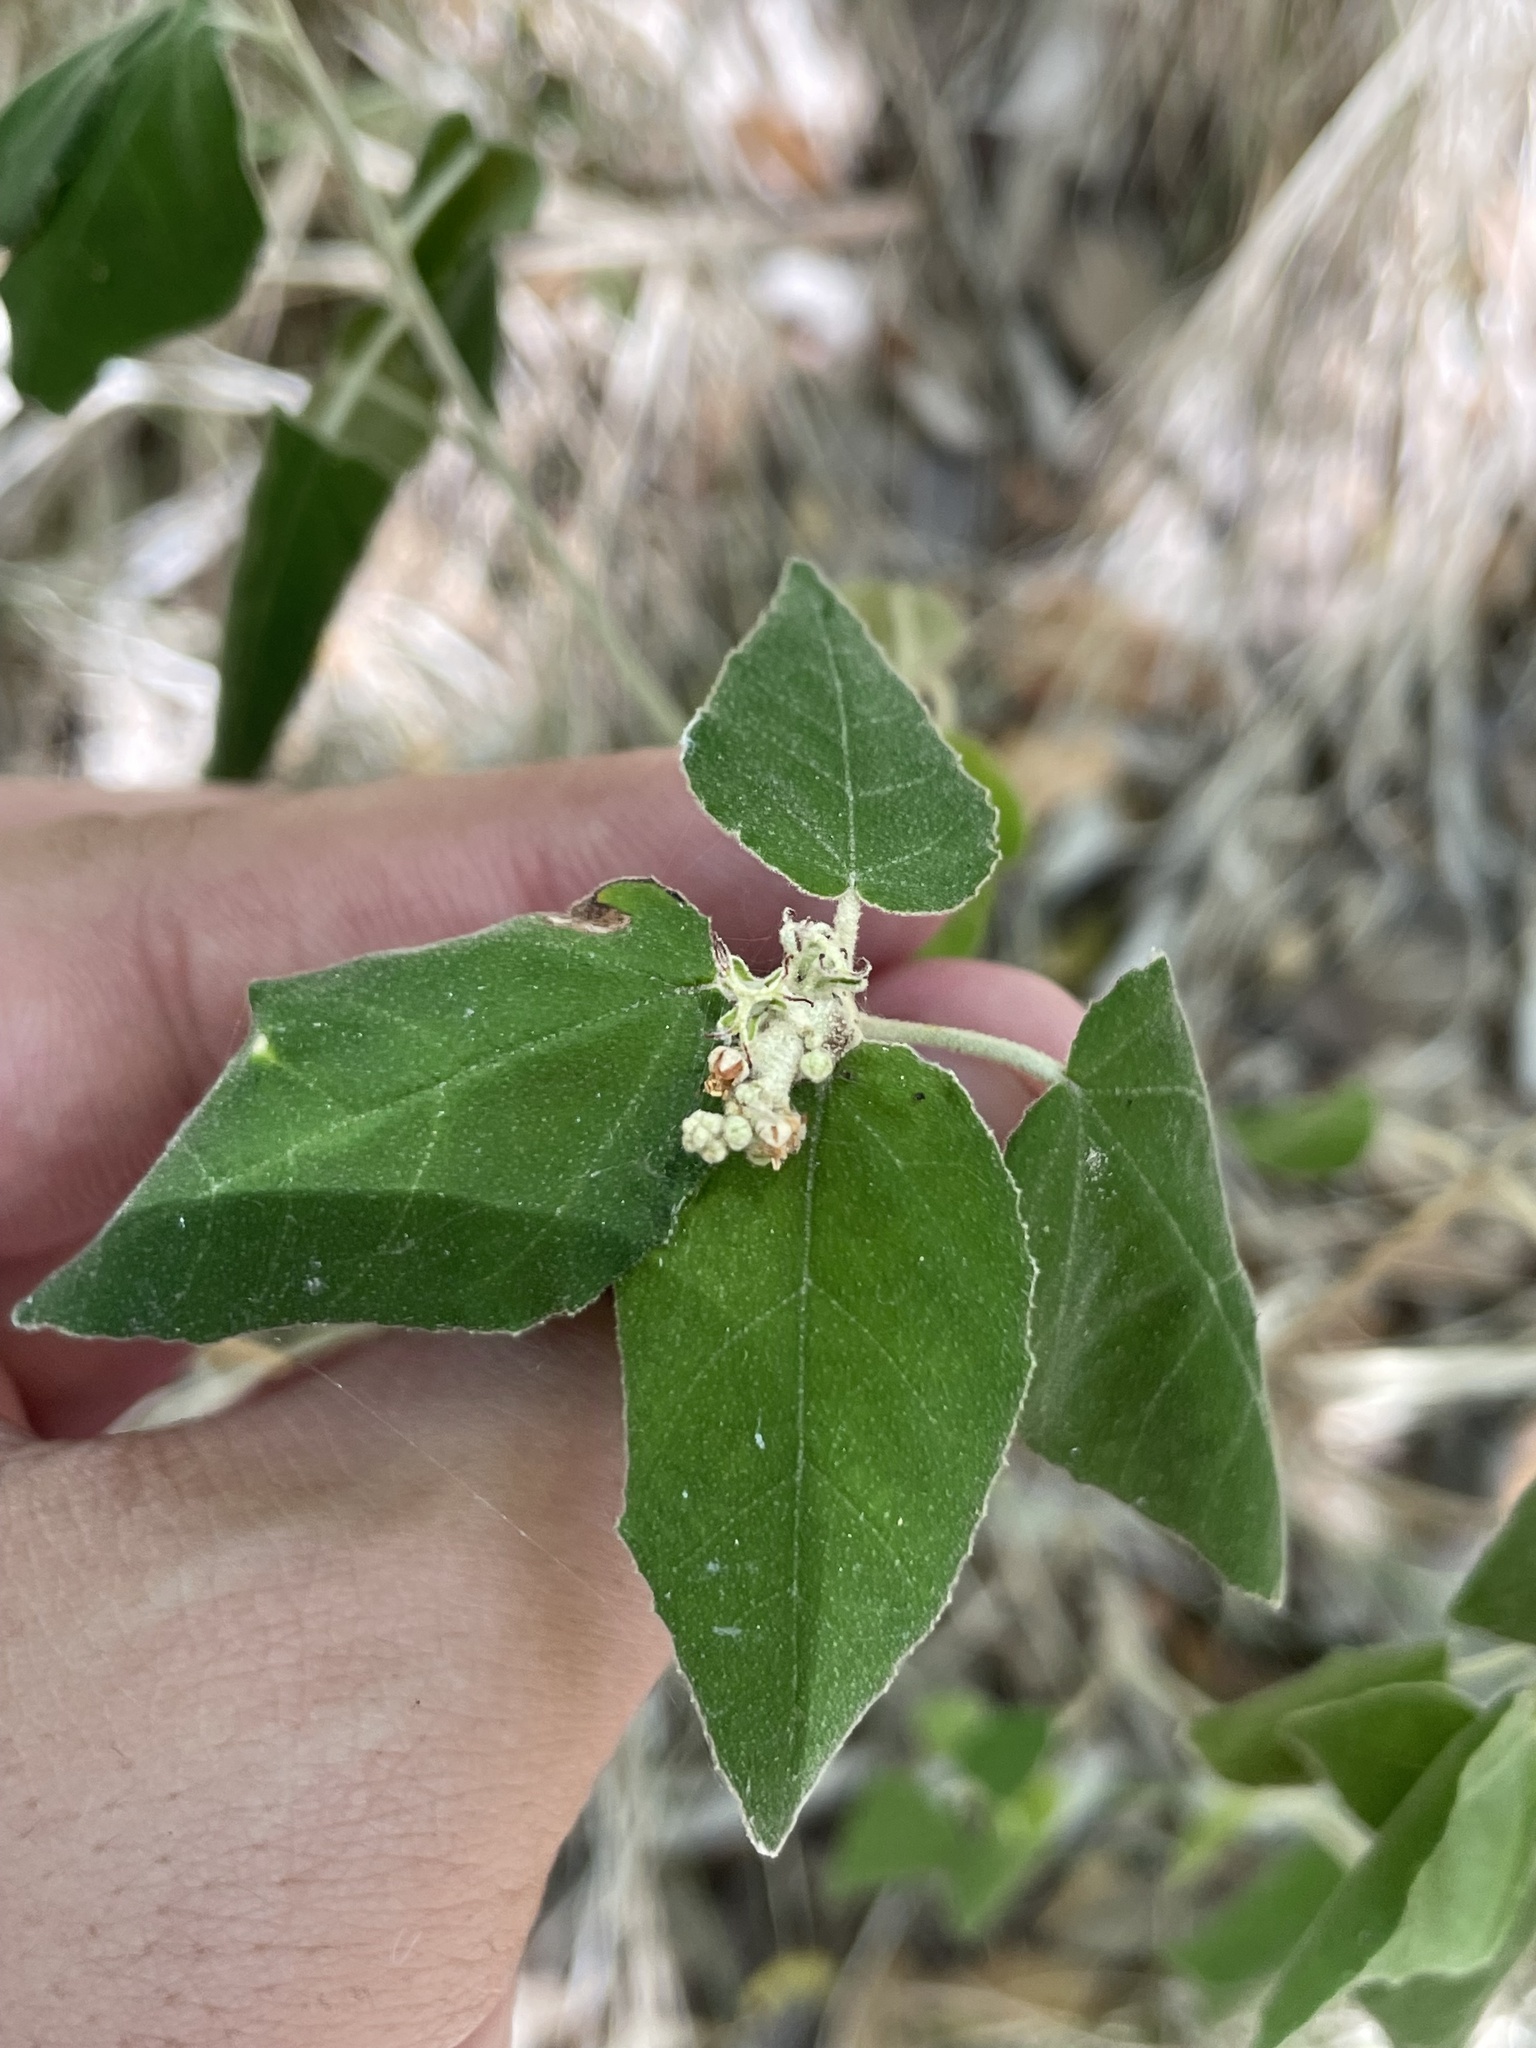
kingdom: Plantae
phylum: Tracheophyta
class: Magnoliopsida
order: Malpighiales
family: Euphorbiaceae
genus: Croton
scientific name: Croton fruticulosus
